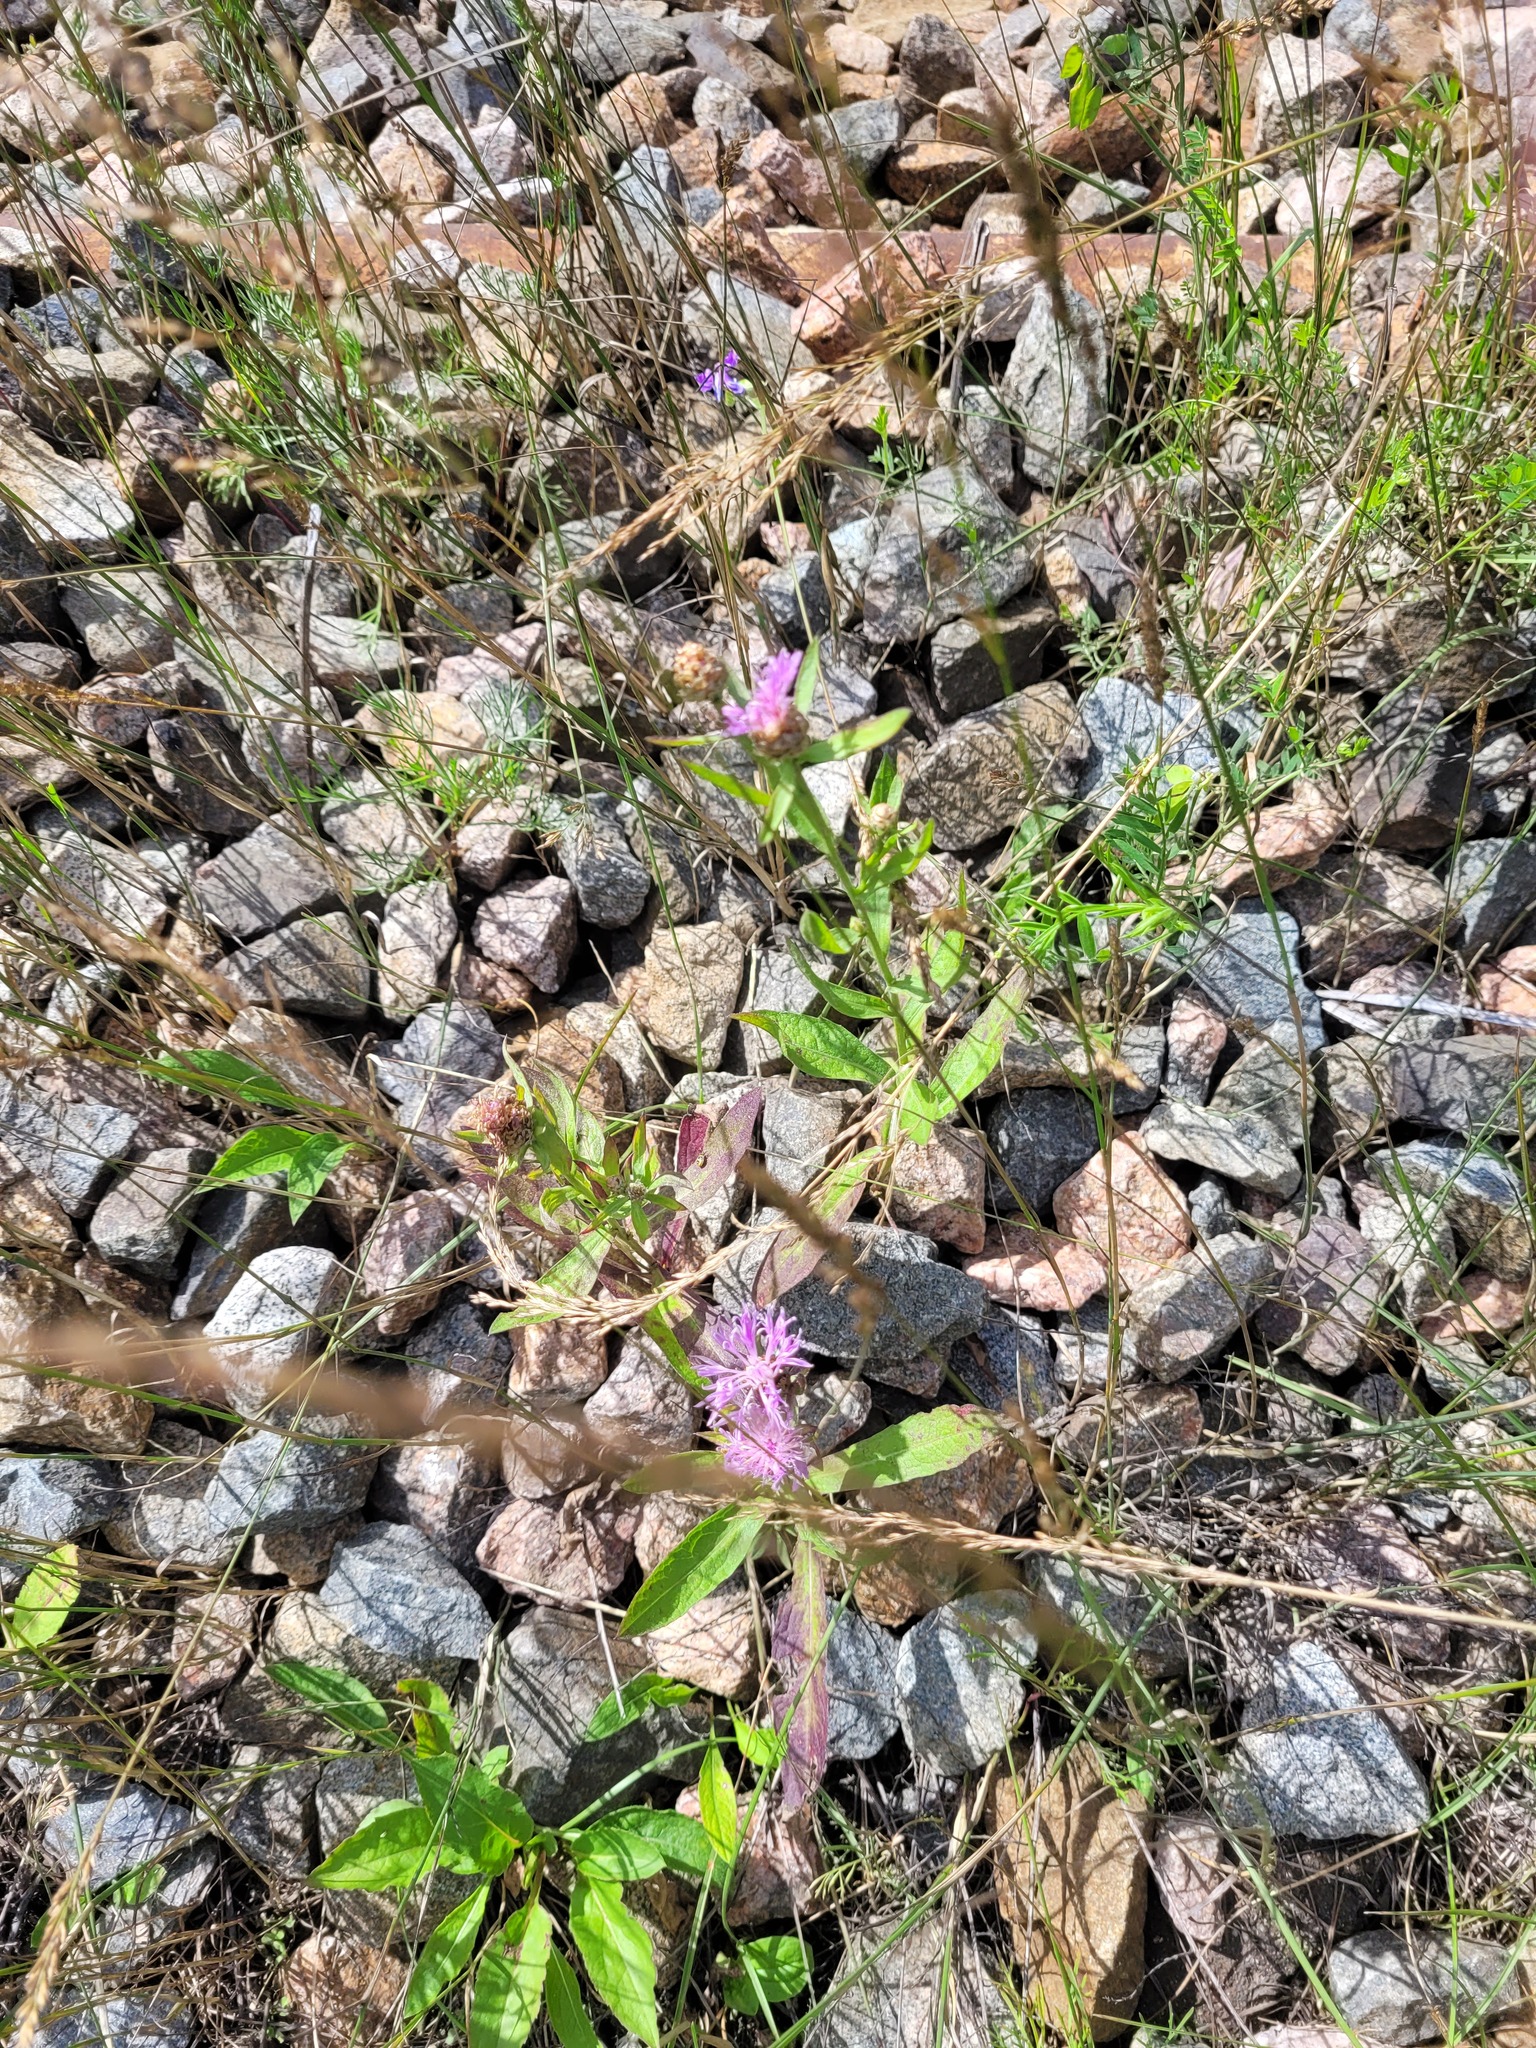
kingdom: Plantae
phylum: Tracheophyta
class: Magnoliopsida
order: Asterales
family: Asteraceae
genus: Centaurea
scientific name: Centaurea jacea
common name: Brown knapweed
